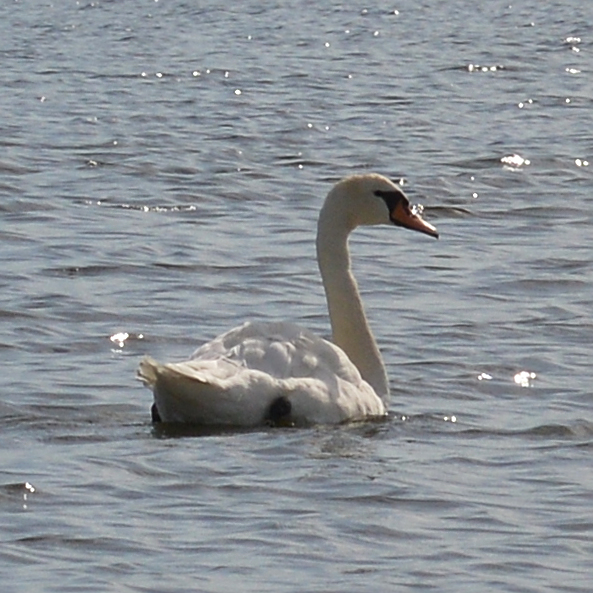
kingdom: Animalia
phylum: Chordata
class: Aves
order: Anseriformes
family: Anatidae
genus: Cygnus
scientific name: Cygnus olor
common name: Mute swan
